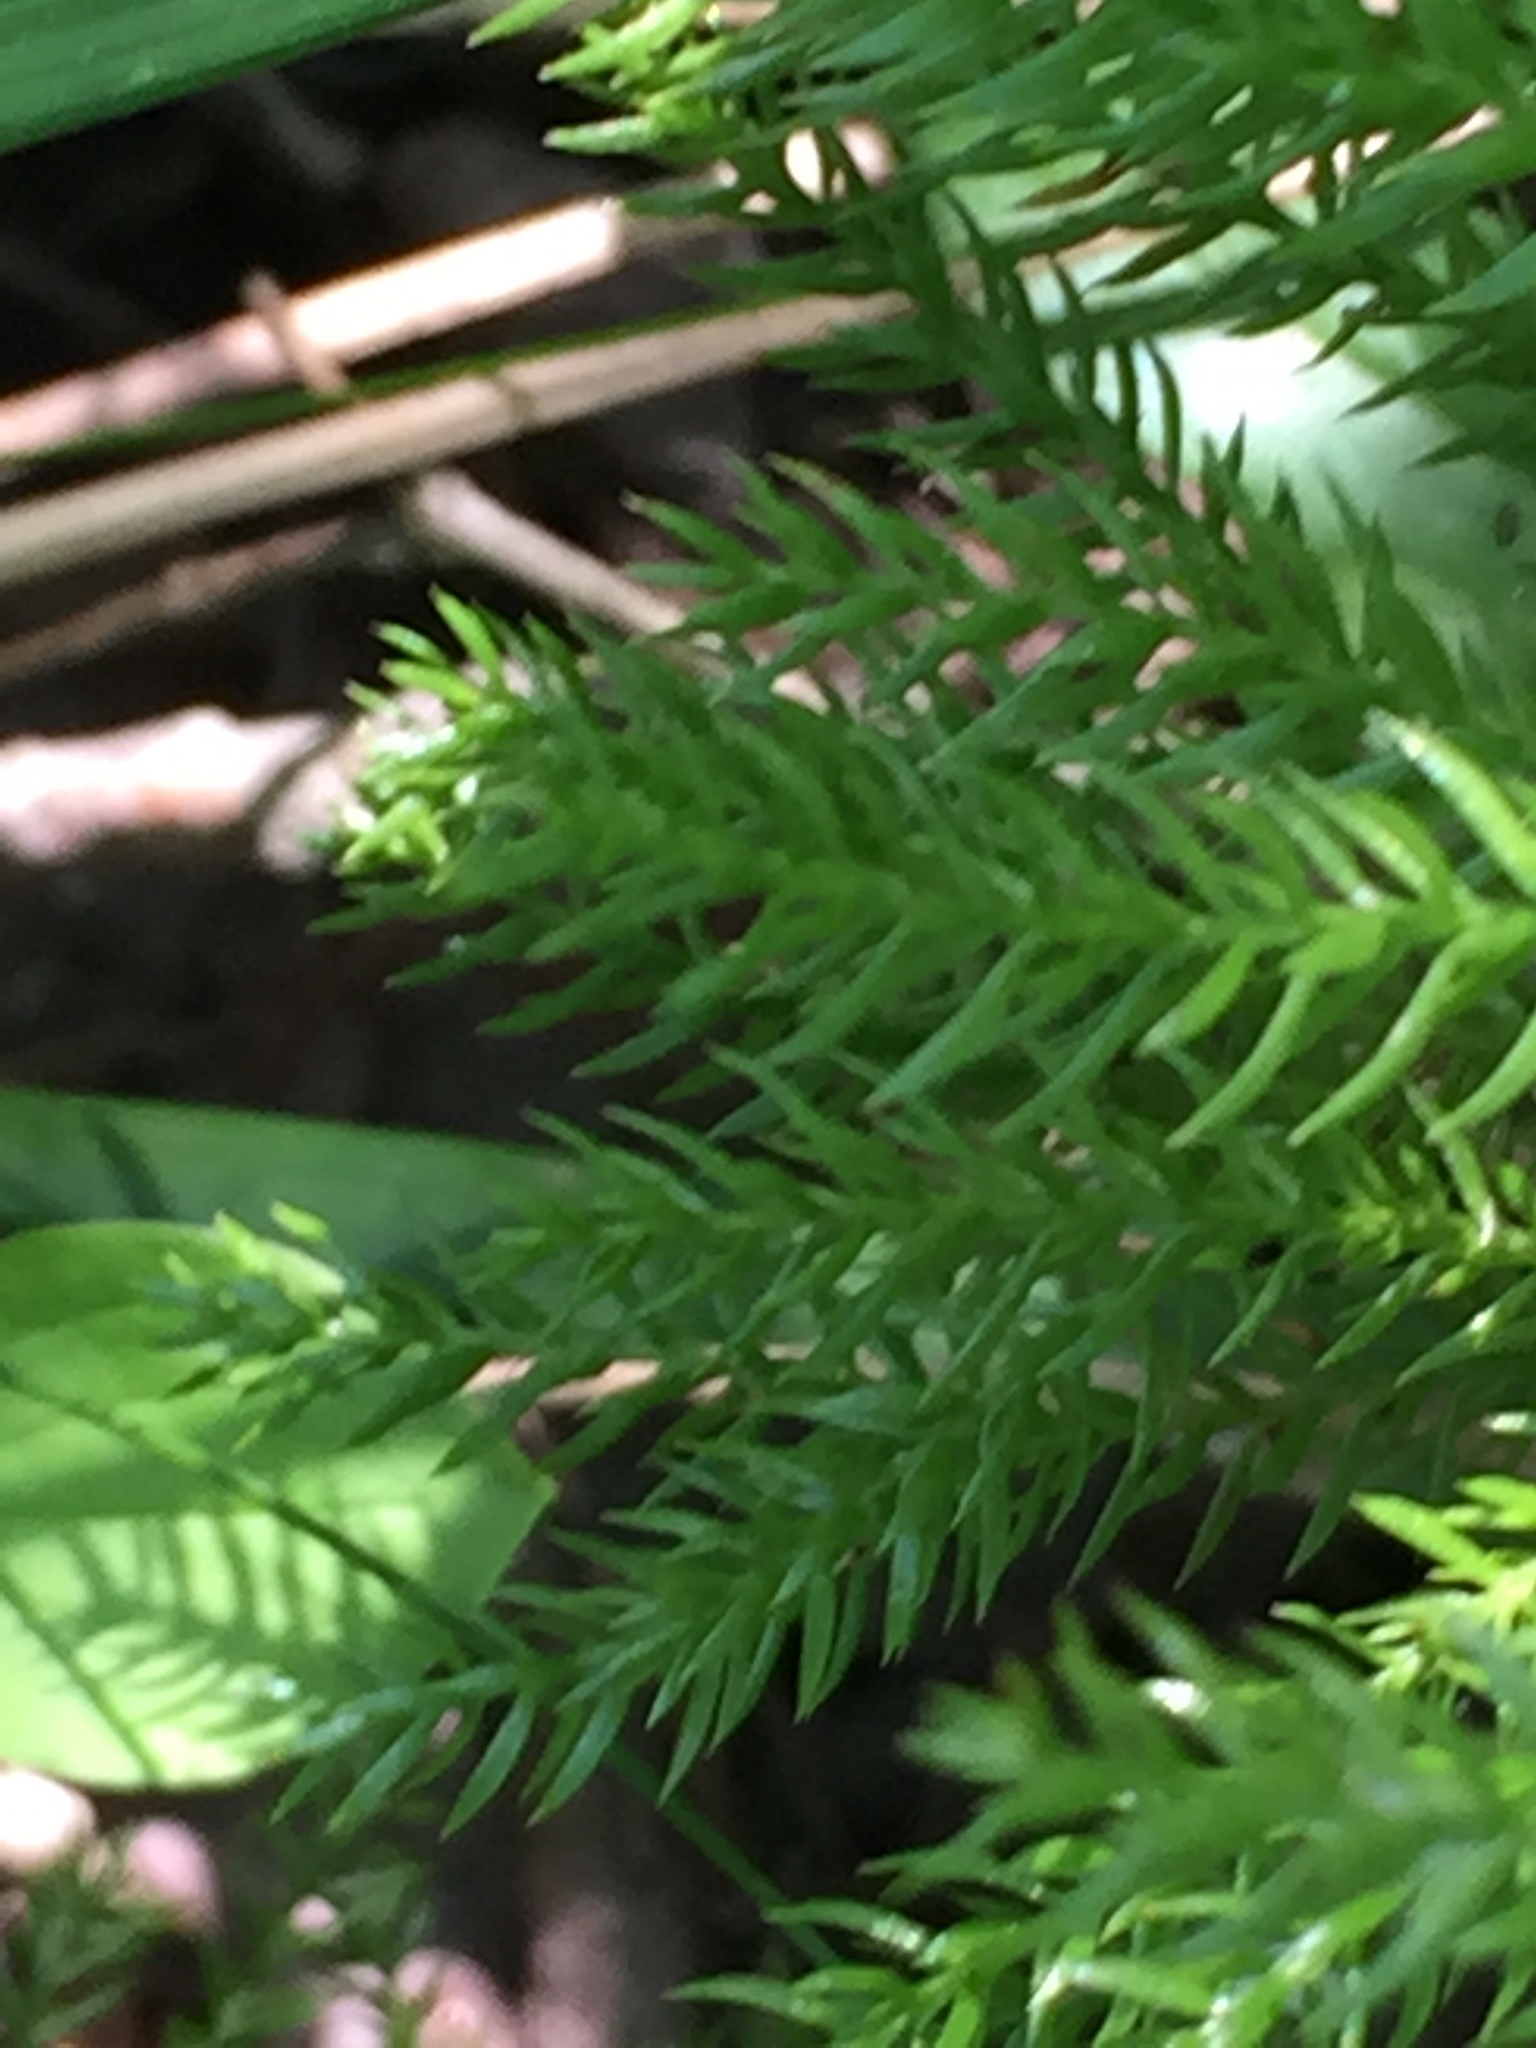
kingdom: Plantae
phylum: Tracheophyta
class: Lycopodiopsida
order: Lycopodiales
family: Lycopodiaceae
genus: Dendrolycopodium
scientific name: Dendrolycopodium dendroideum
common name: Northern tree-clubmoss
